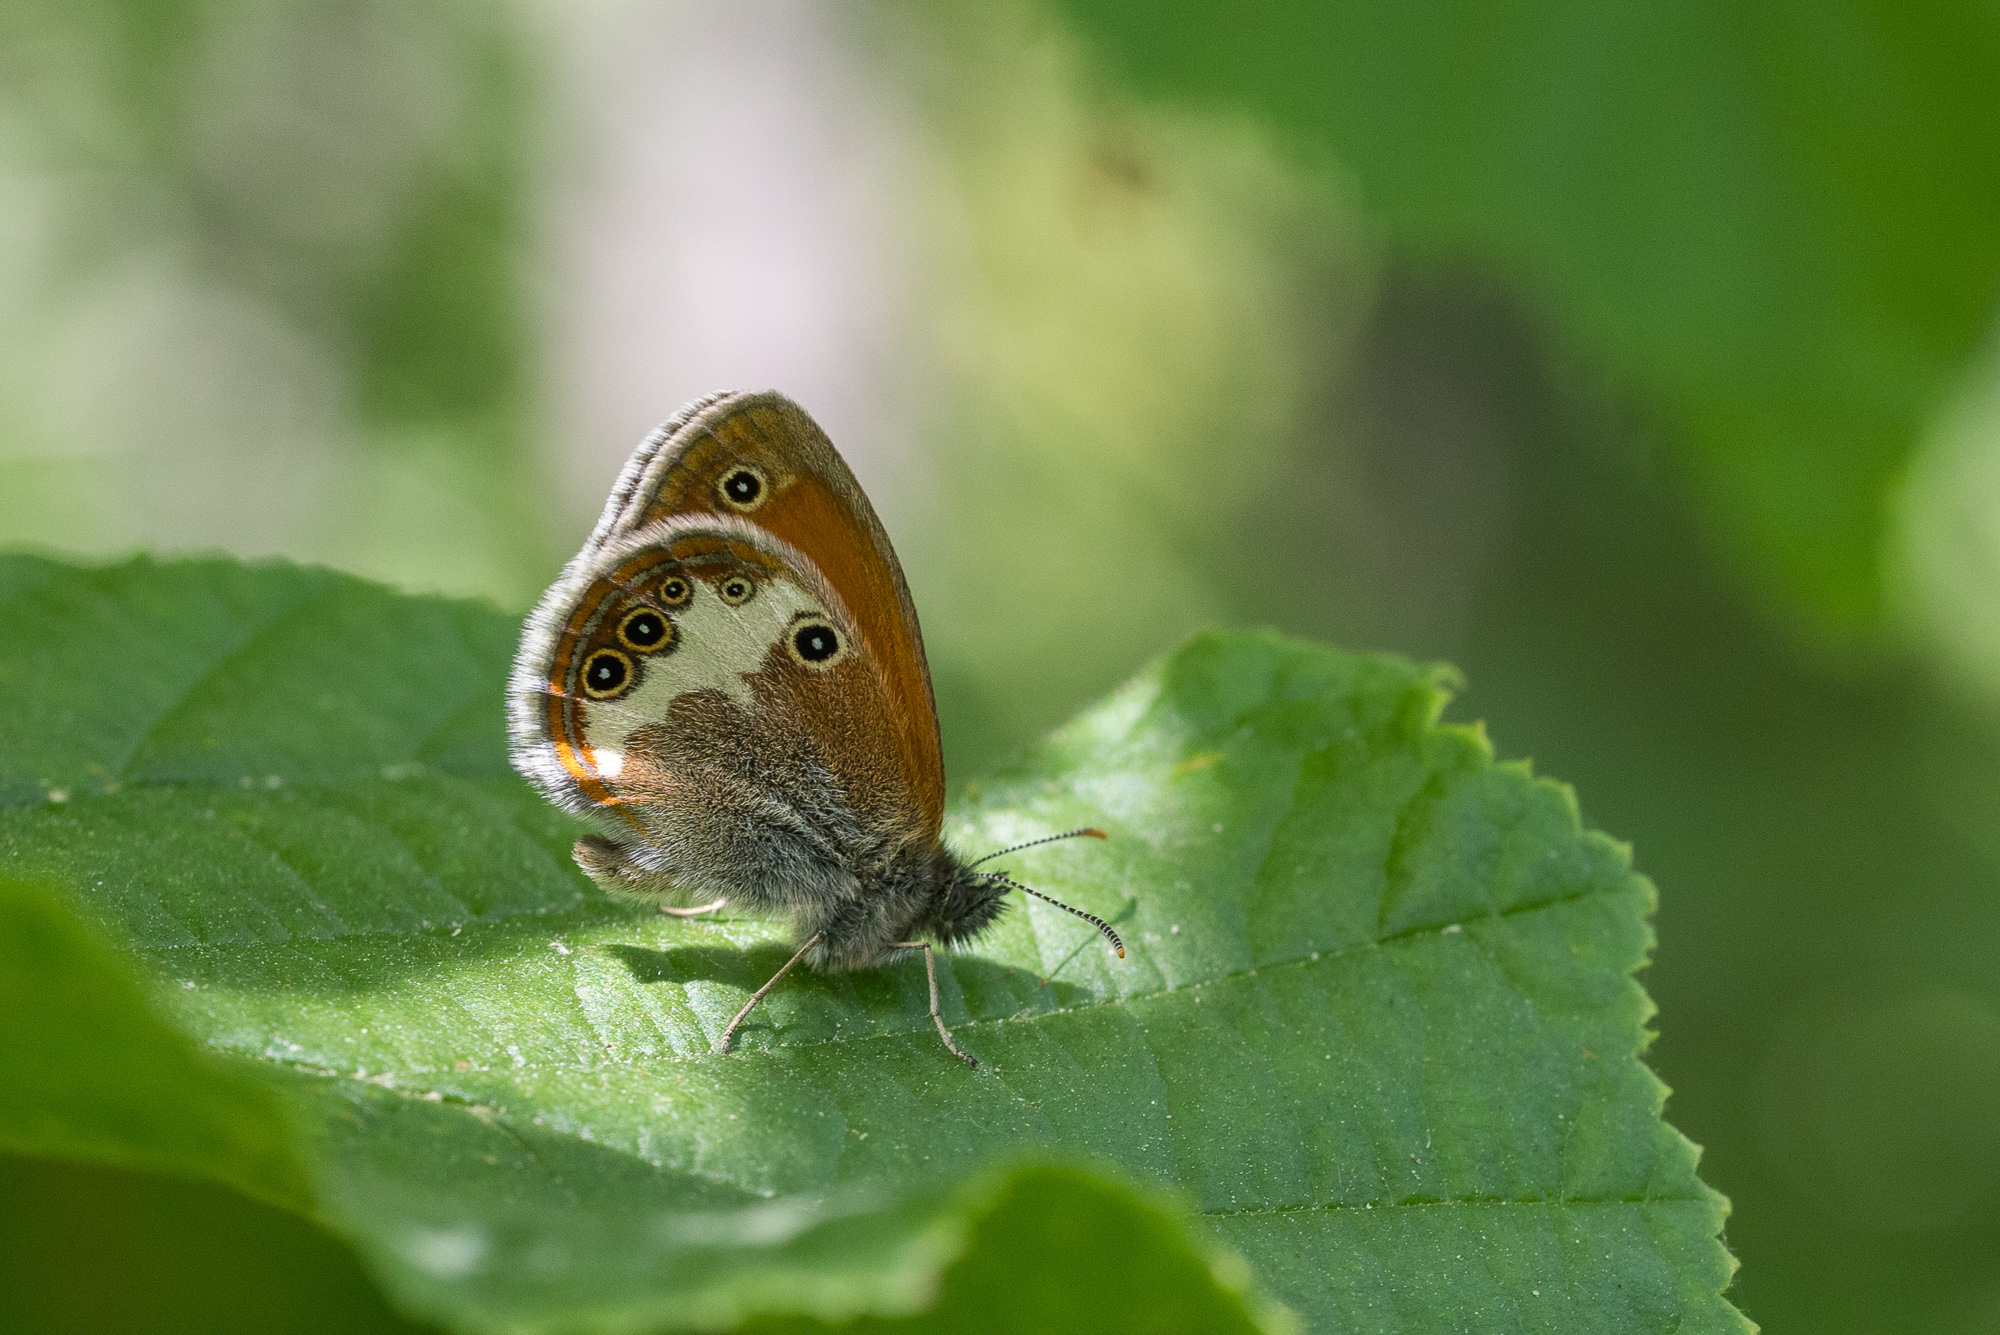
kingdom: Animalia
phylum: Arthropoda
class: Insecta
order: Lepidoptera
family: Nymphalidae
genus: Coenonympha
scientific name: Coenonympha arcania
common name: Pearly heath
